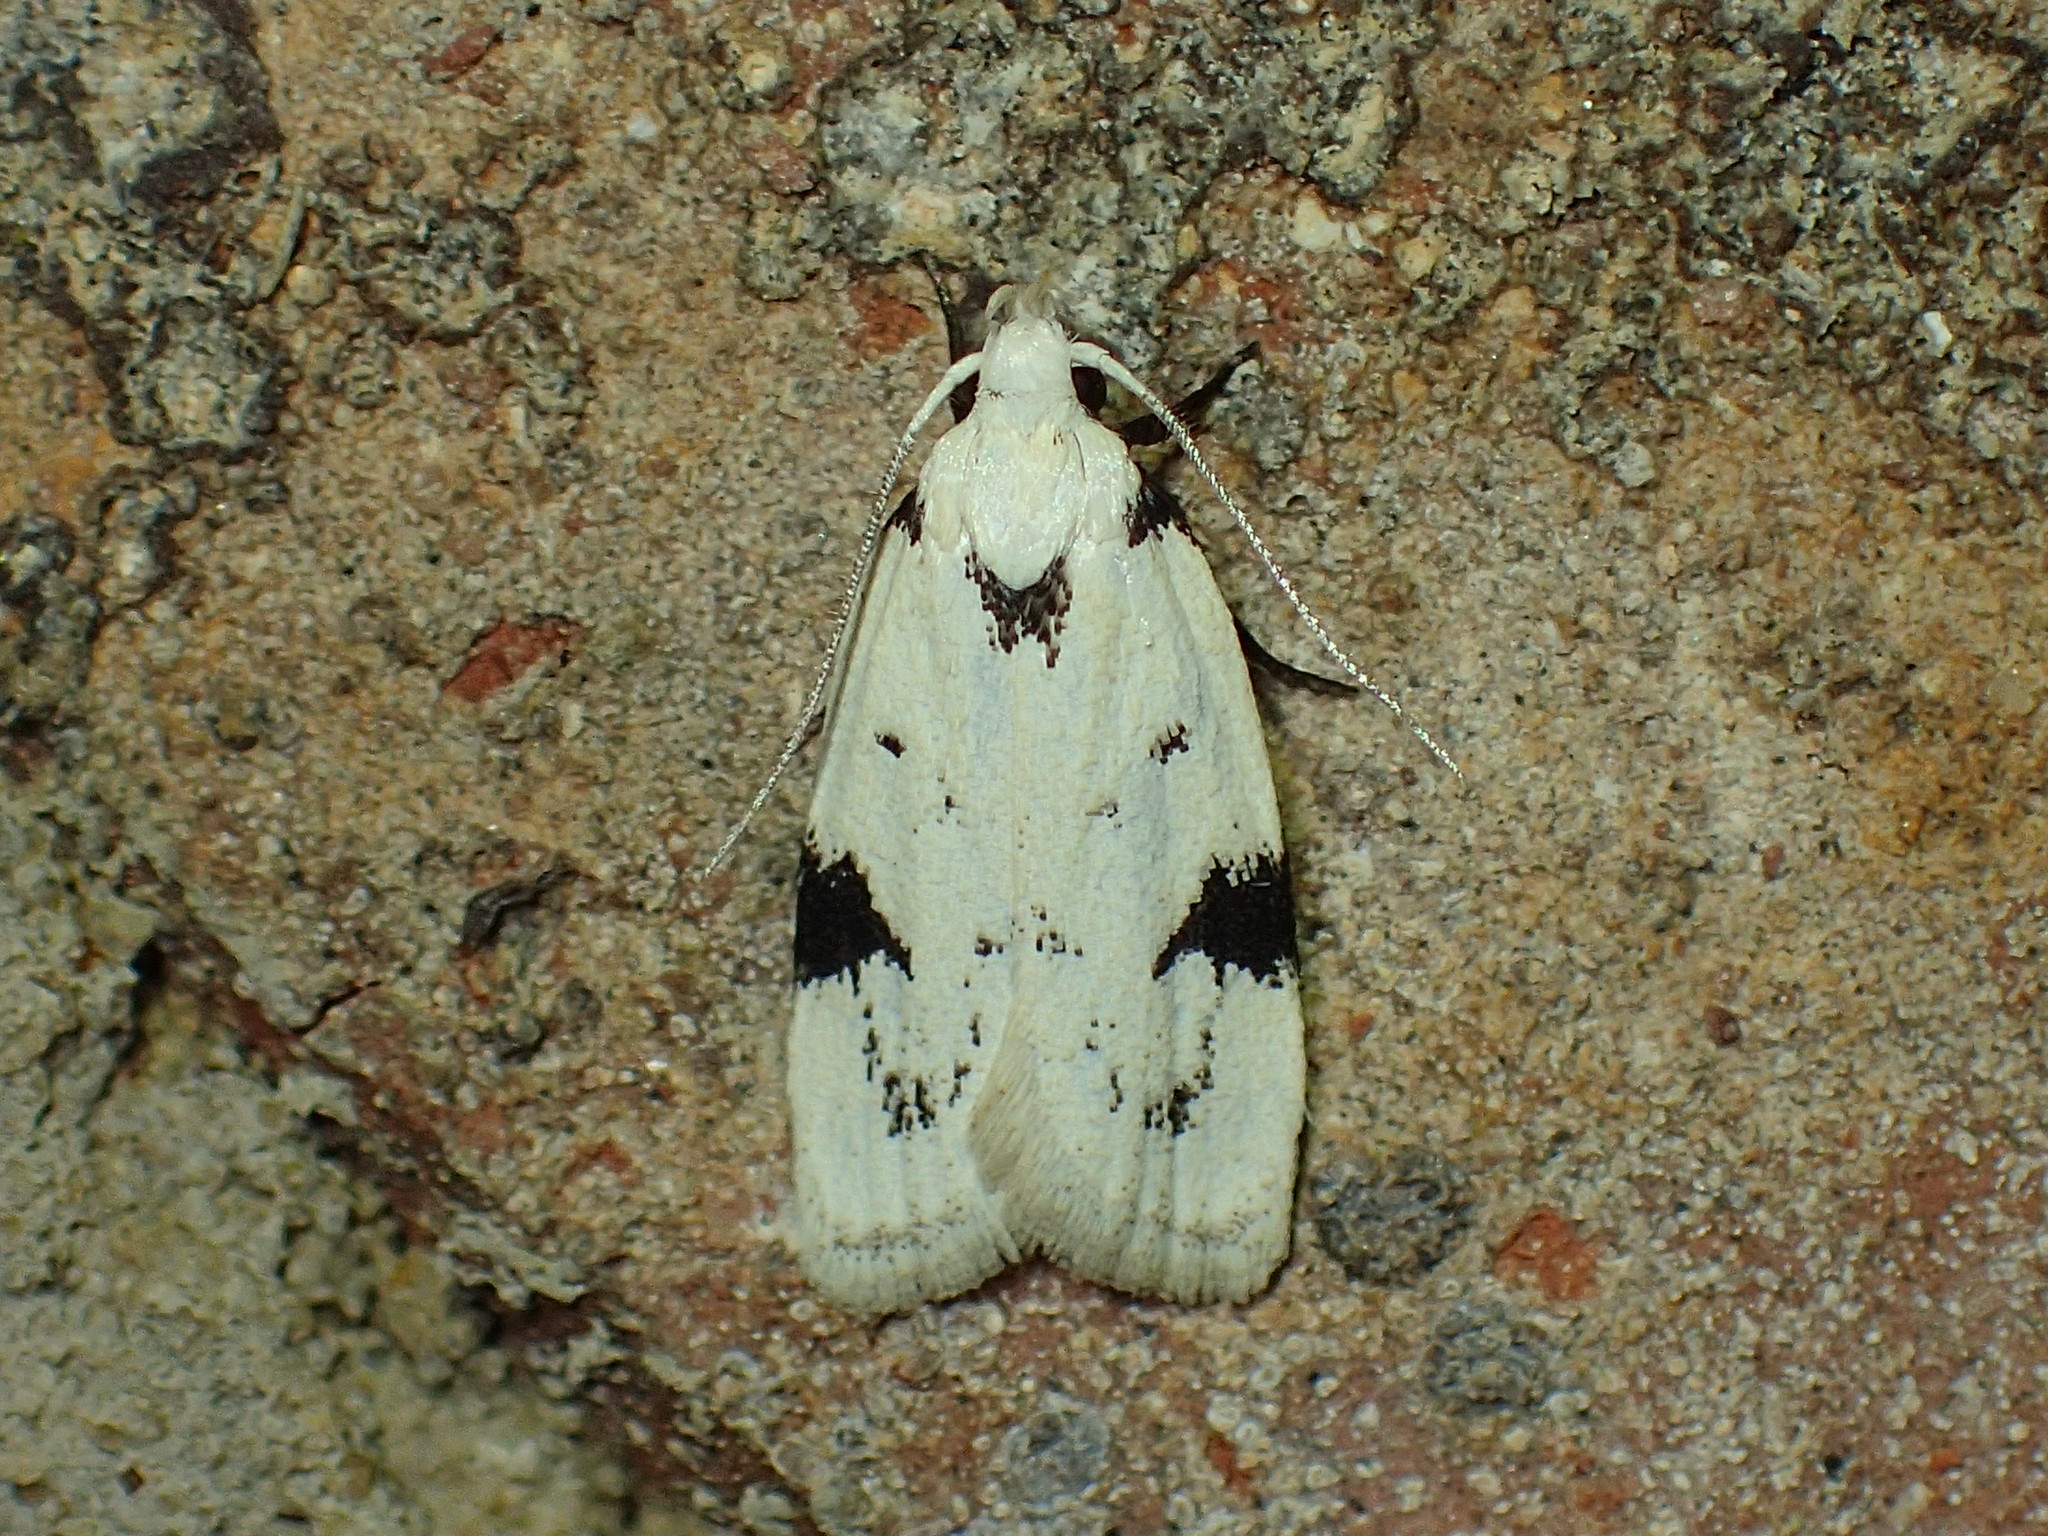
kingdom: Animalia
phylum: Arthropoda
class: Insecta
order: Lepidoptera
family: Oecophoridae
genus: Inga
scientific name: Inga sparsiciliella
